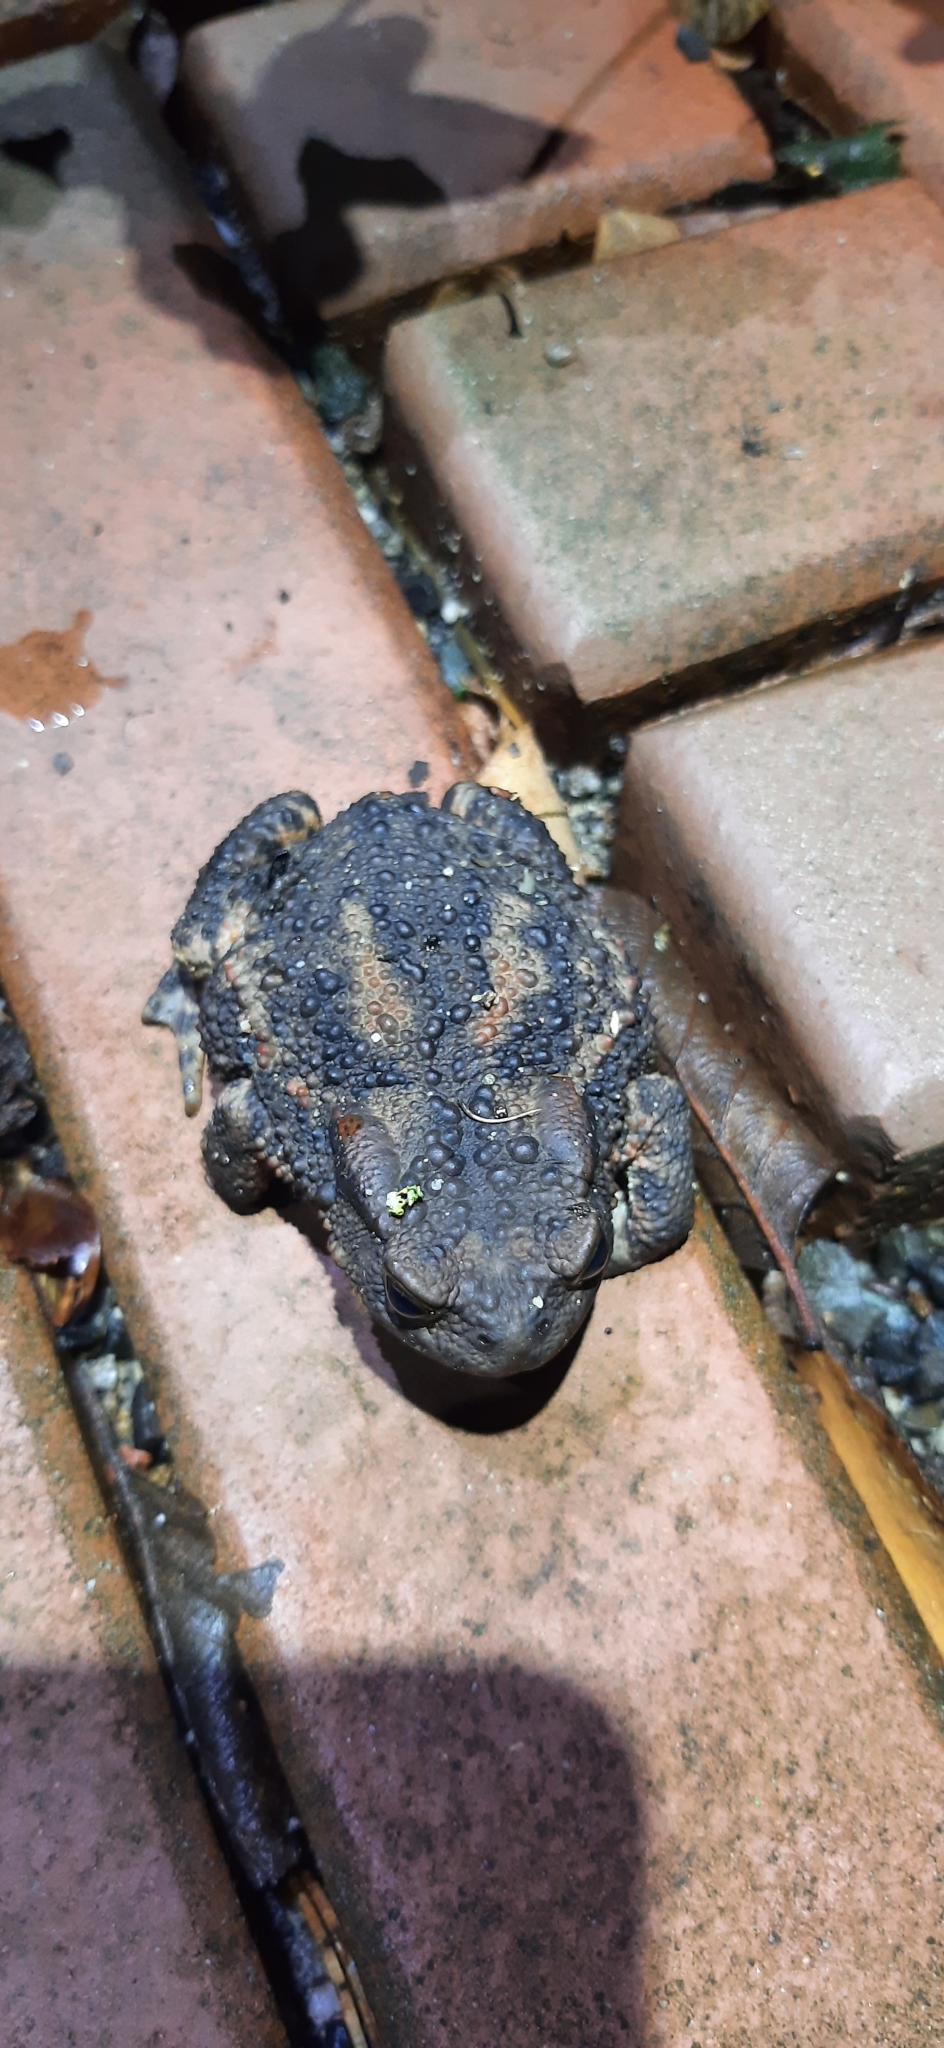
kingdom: Animalia
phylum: Chordata
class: Amphibia
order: Anura
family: Bufonidae
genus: Bufo
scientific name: Bufo bufo
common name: Common toad
